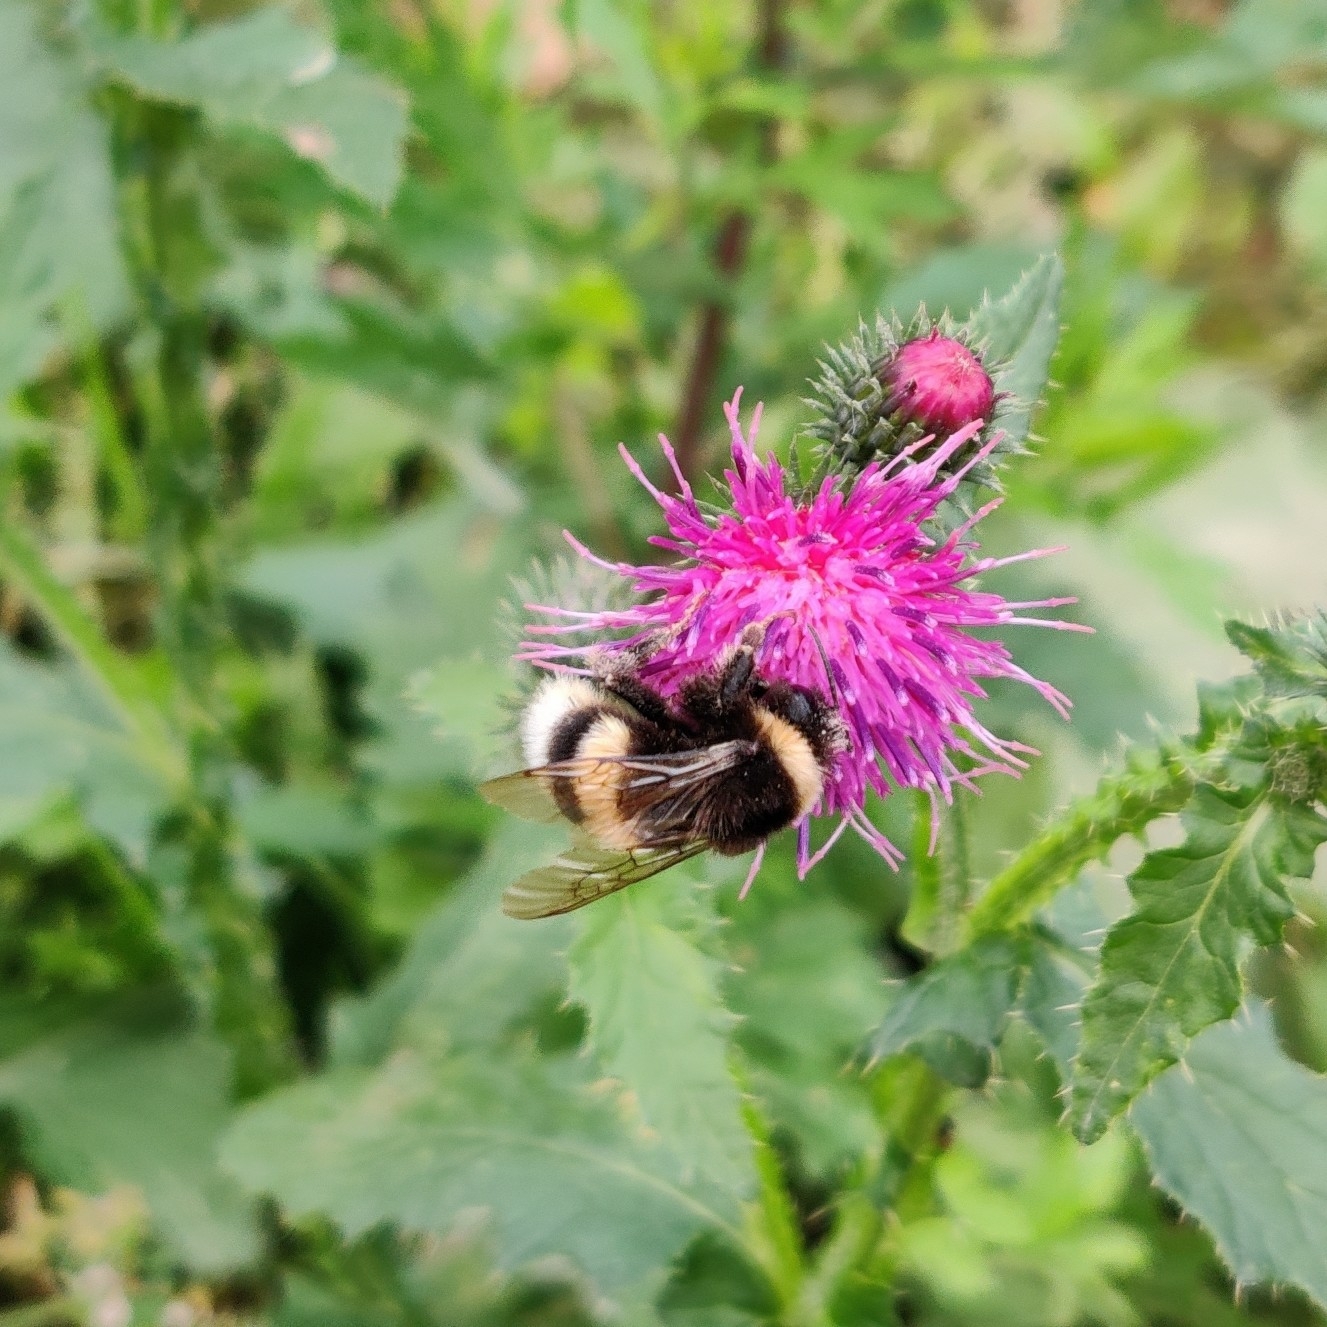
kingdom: Animalia
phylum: Arthropoda
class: Insecta
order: Hymenoptera
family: Apidae
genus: Bombus
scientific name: Bombus
